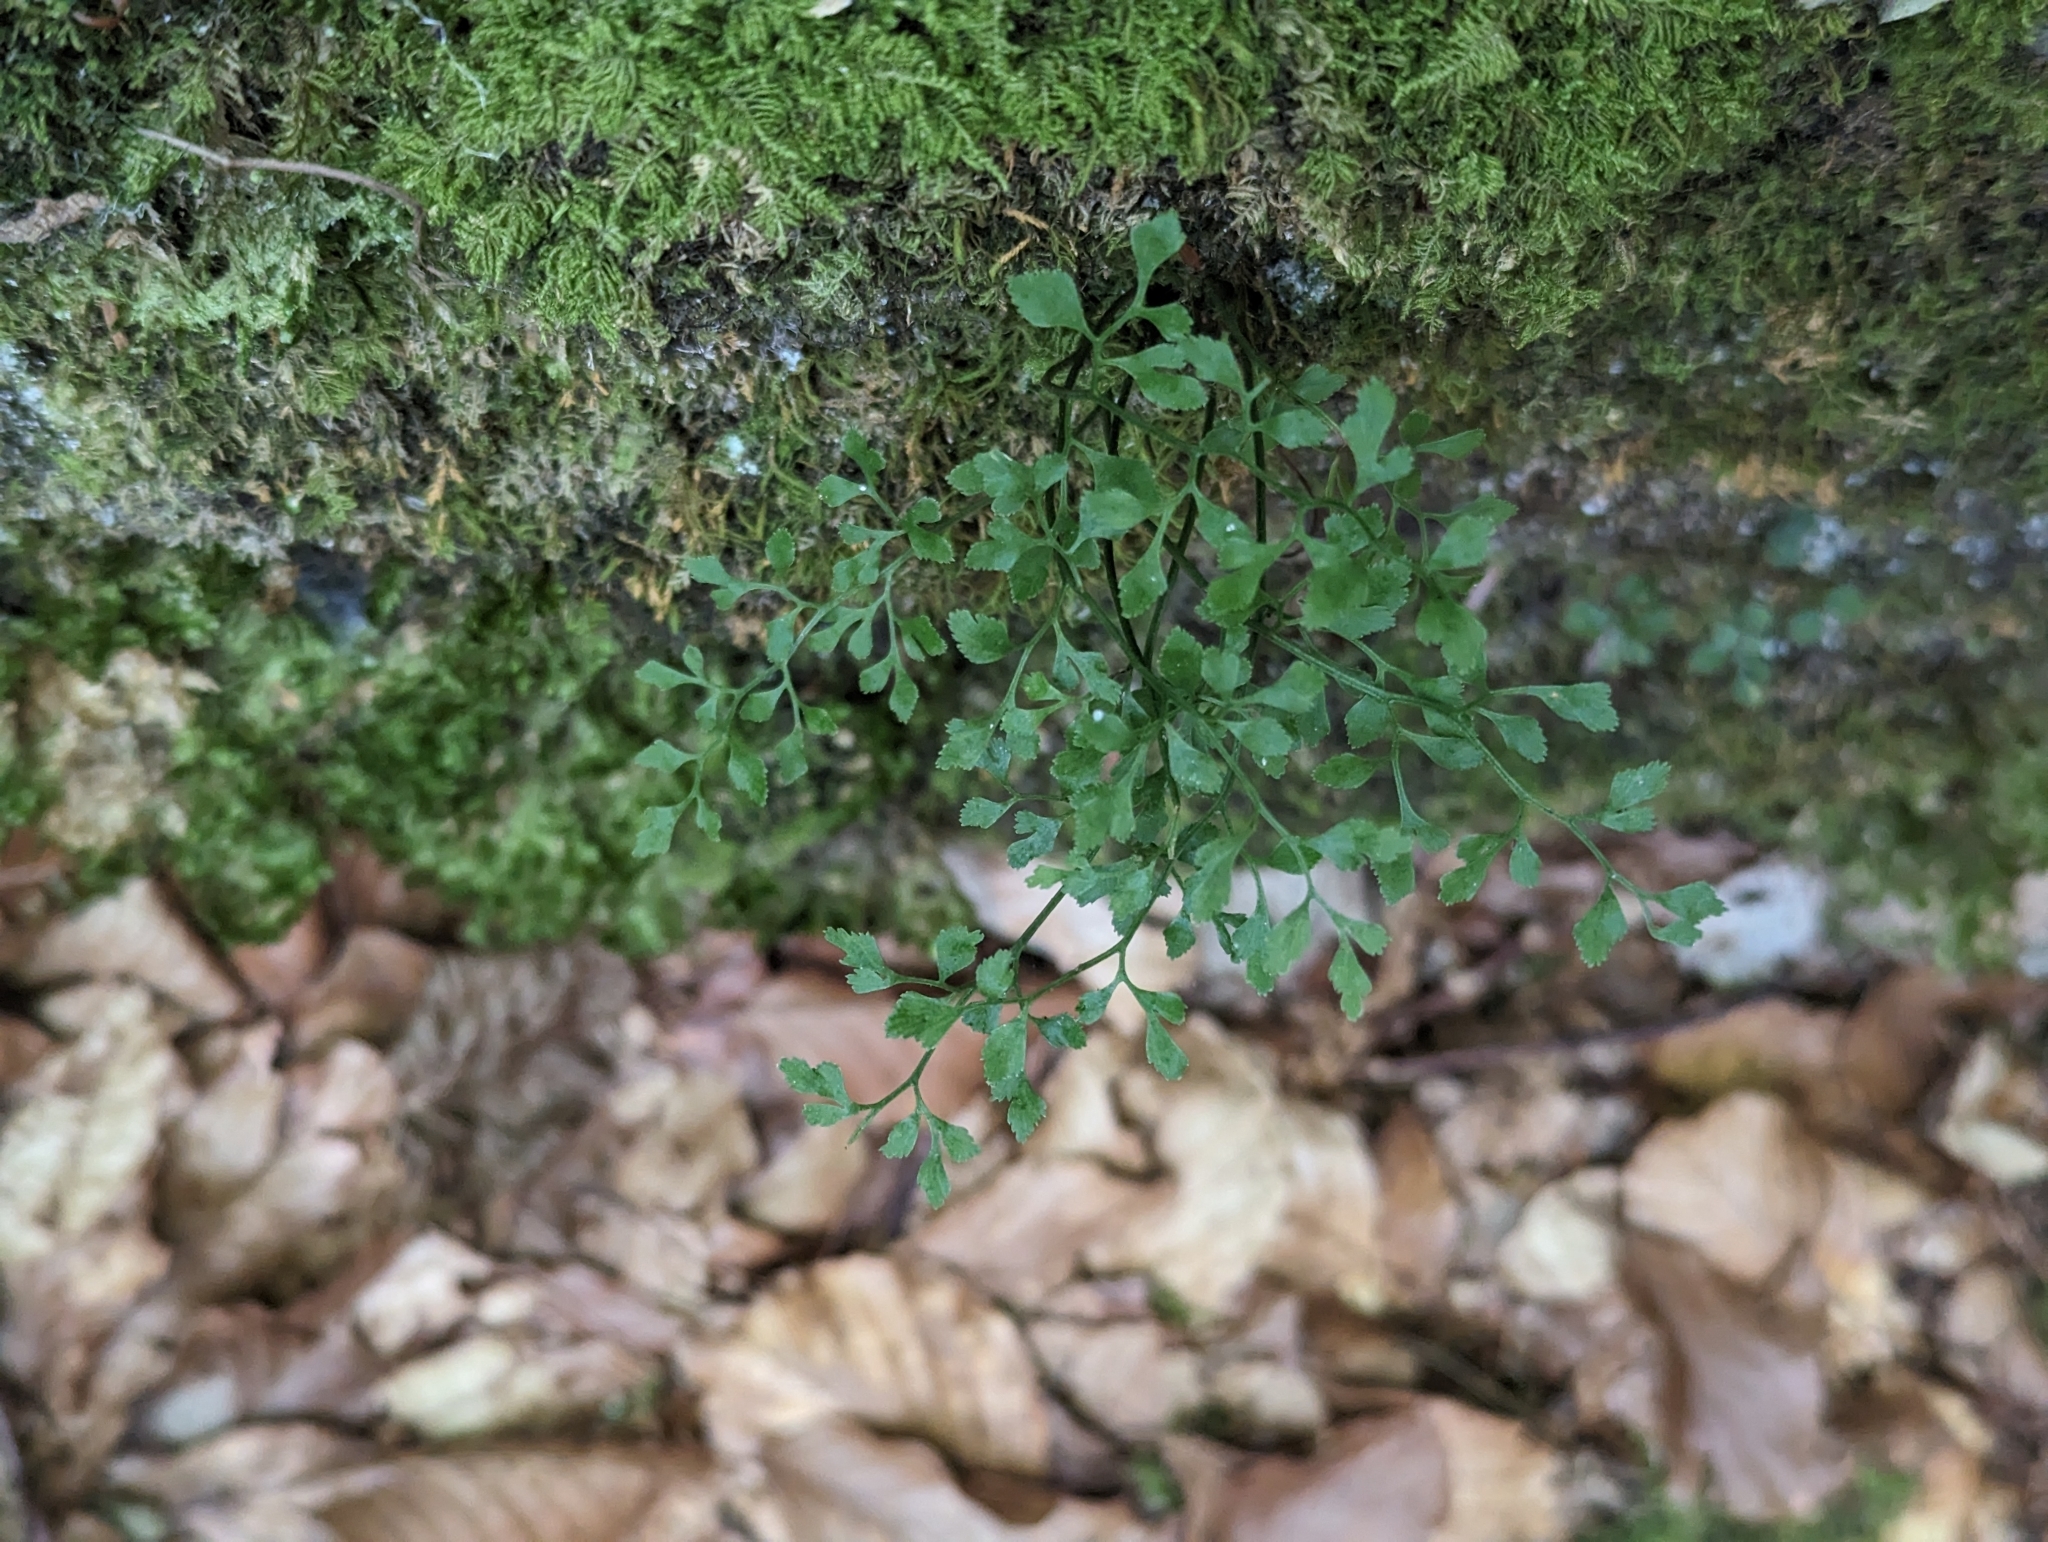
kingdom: Plantae
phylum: Tracheophyta
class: Polypodiopsida
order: Polypodiales
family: Aspleniaceae
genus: Asplenium
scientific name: Asplenium ruta-muraria
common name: Wall-rue
